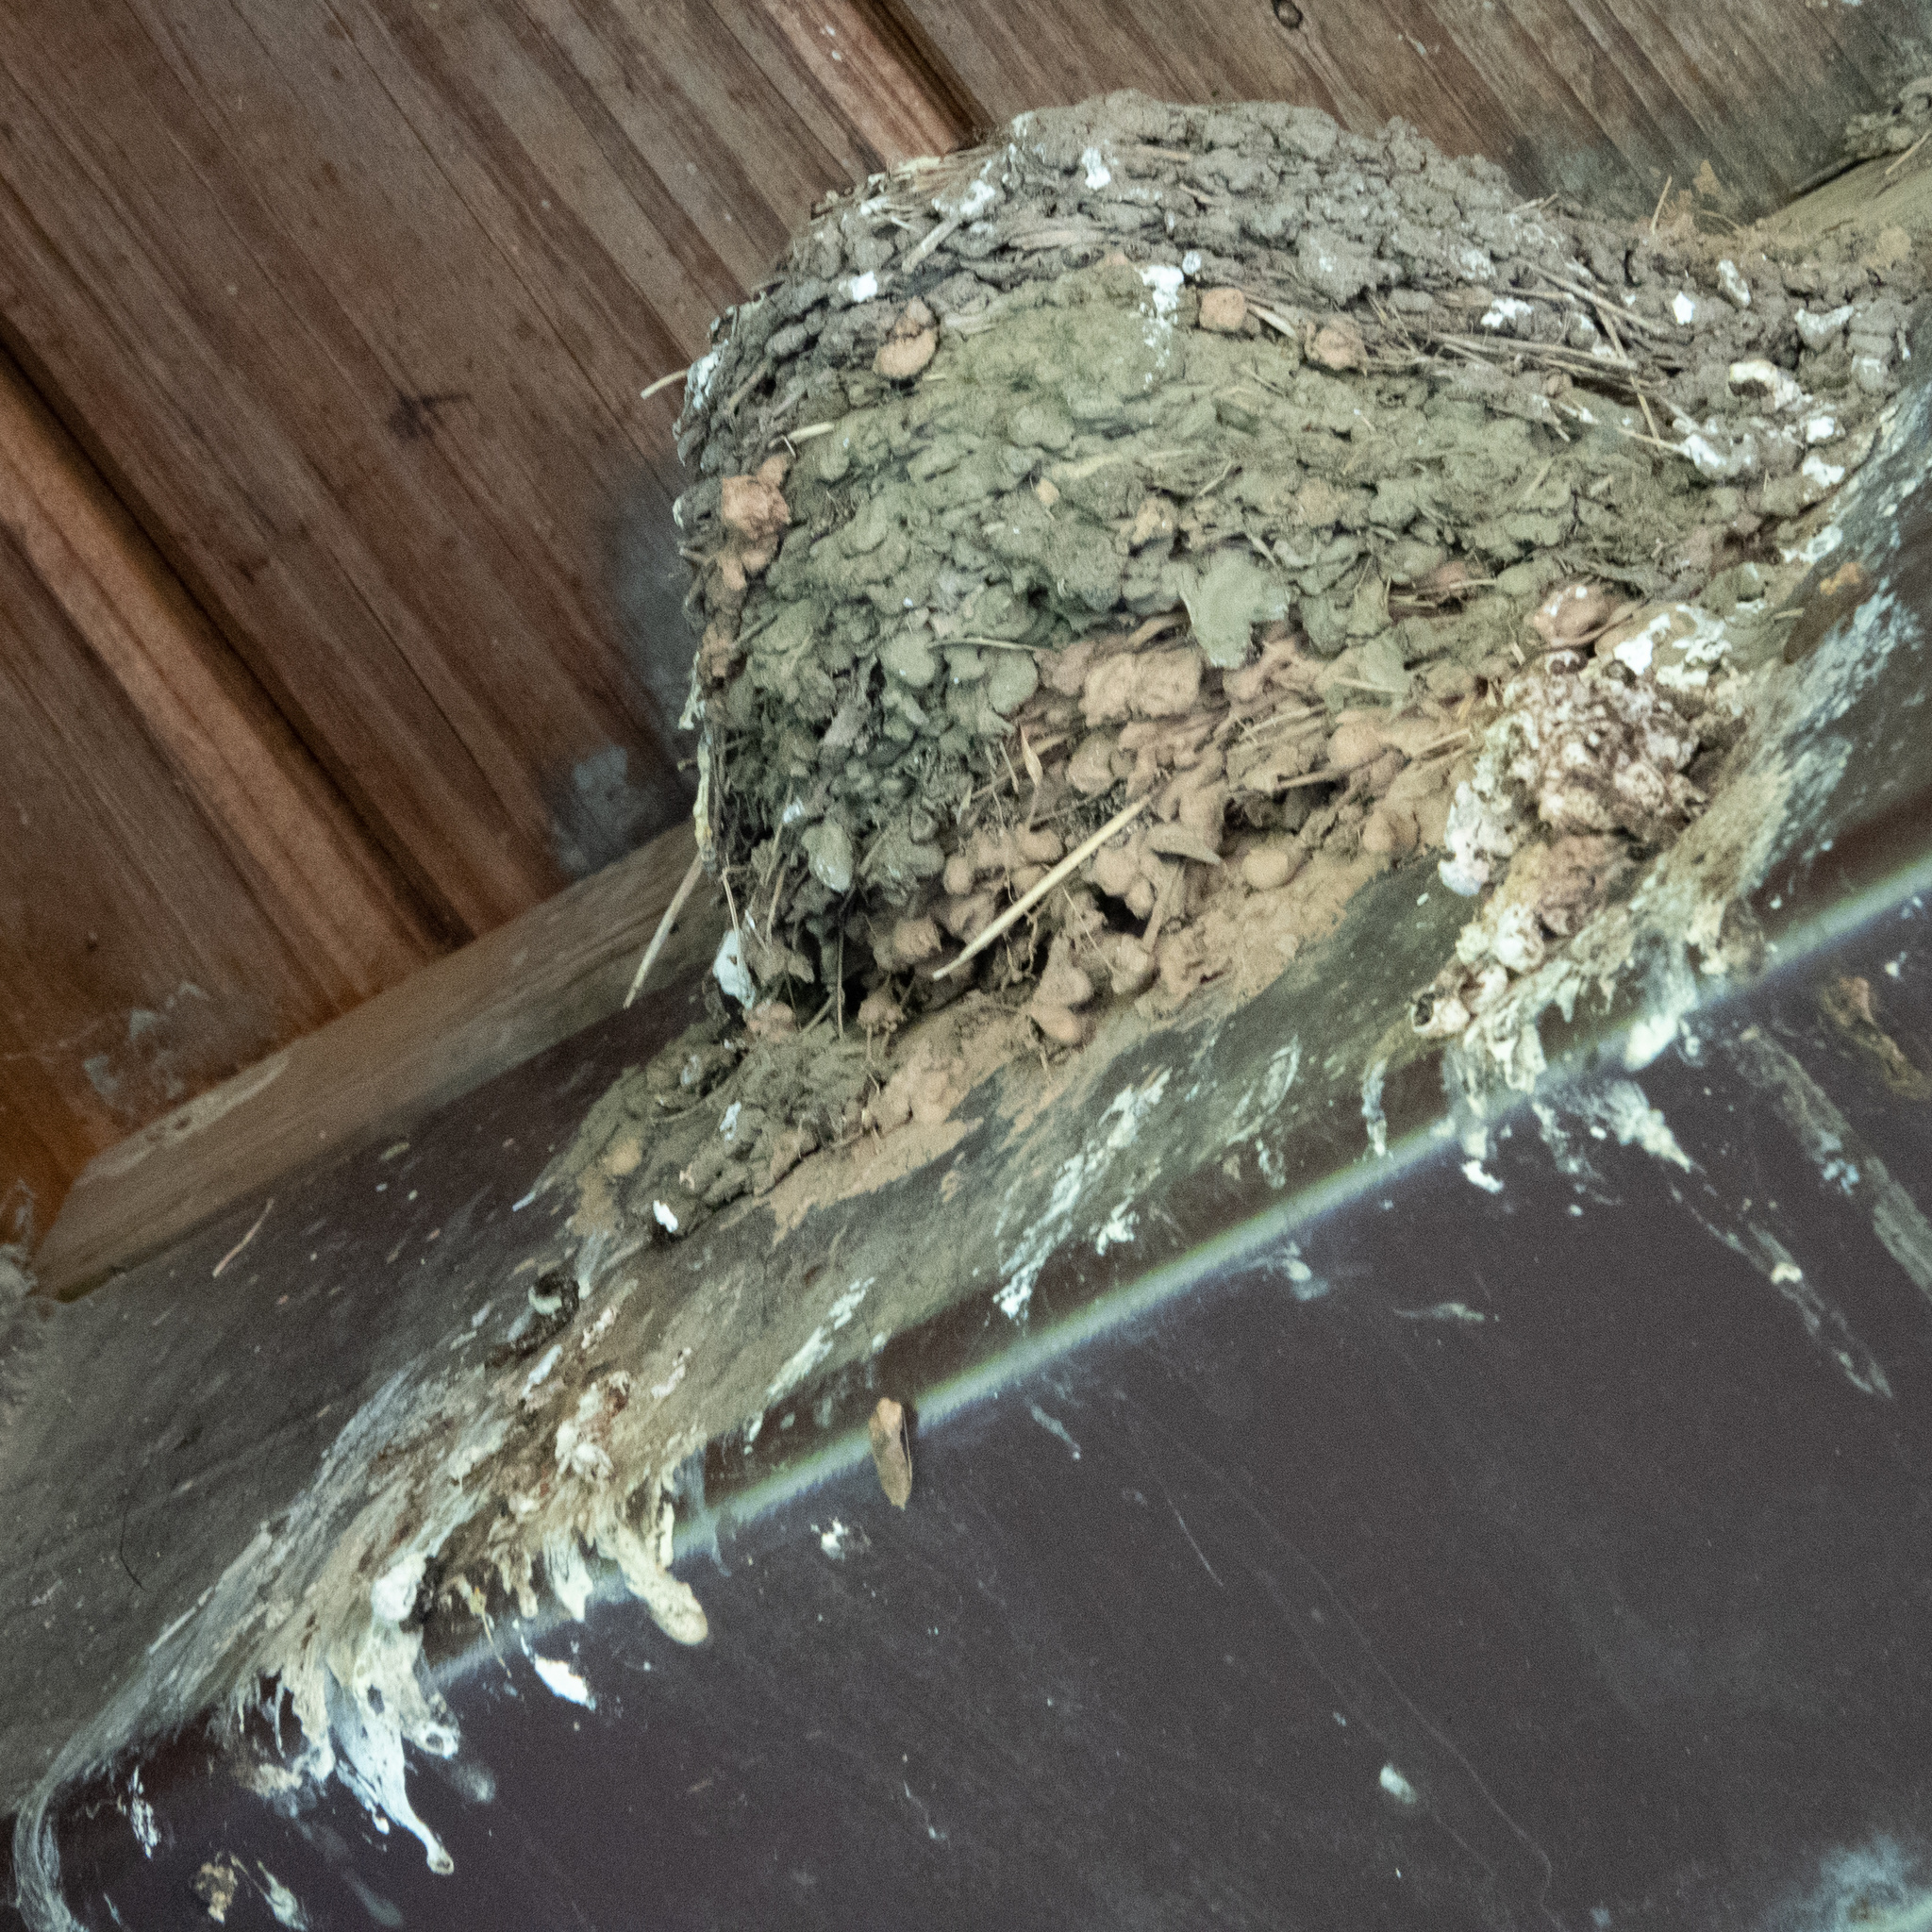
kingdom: Animalia
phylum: Chordata
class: Aves
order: Passeriformes
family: Hirundinidae
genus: Hirundo
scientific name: Hirundo rustica
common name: Barn swallow
